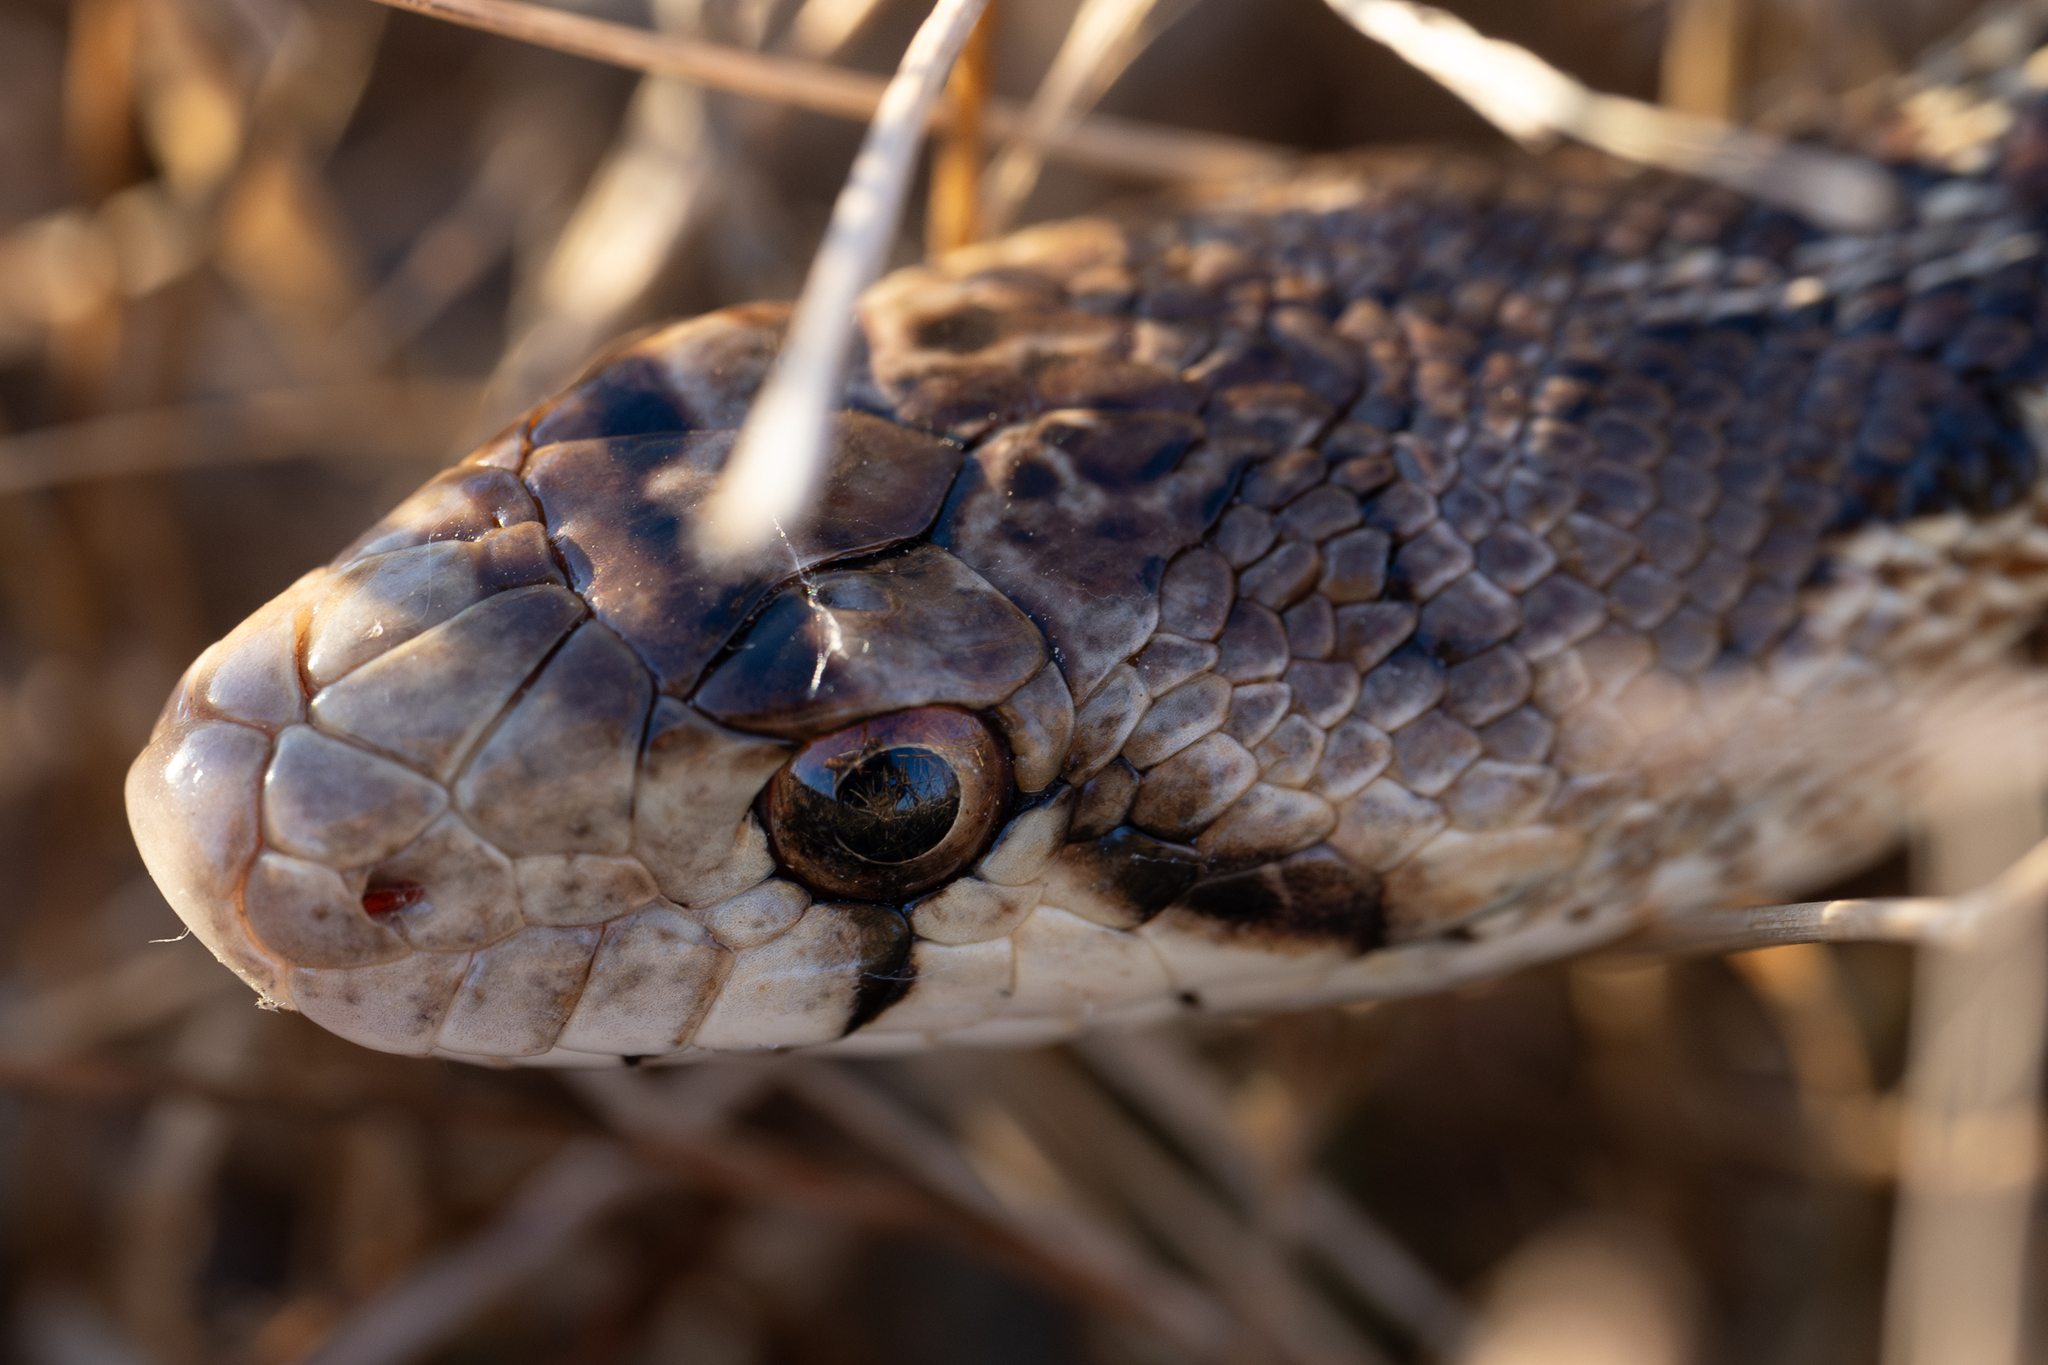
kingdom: Animalia
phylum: Chordata
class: Squamata
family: Colubridae
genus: Pituophis
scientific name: Pituophis catenifer
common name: Gopher snake
